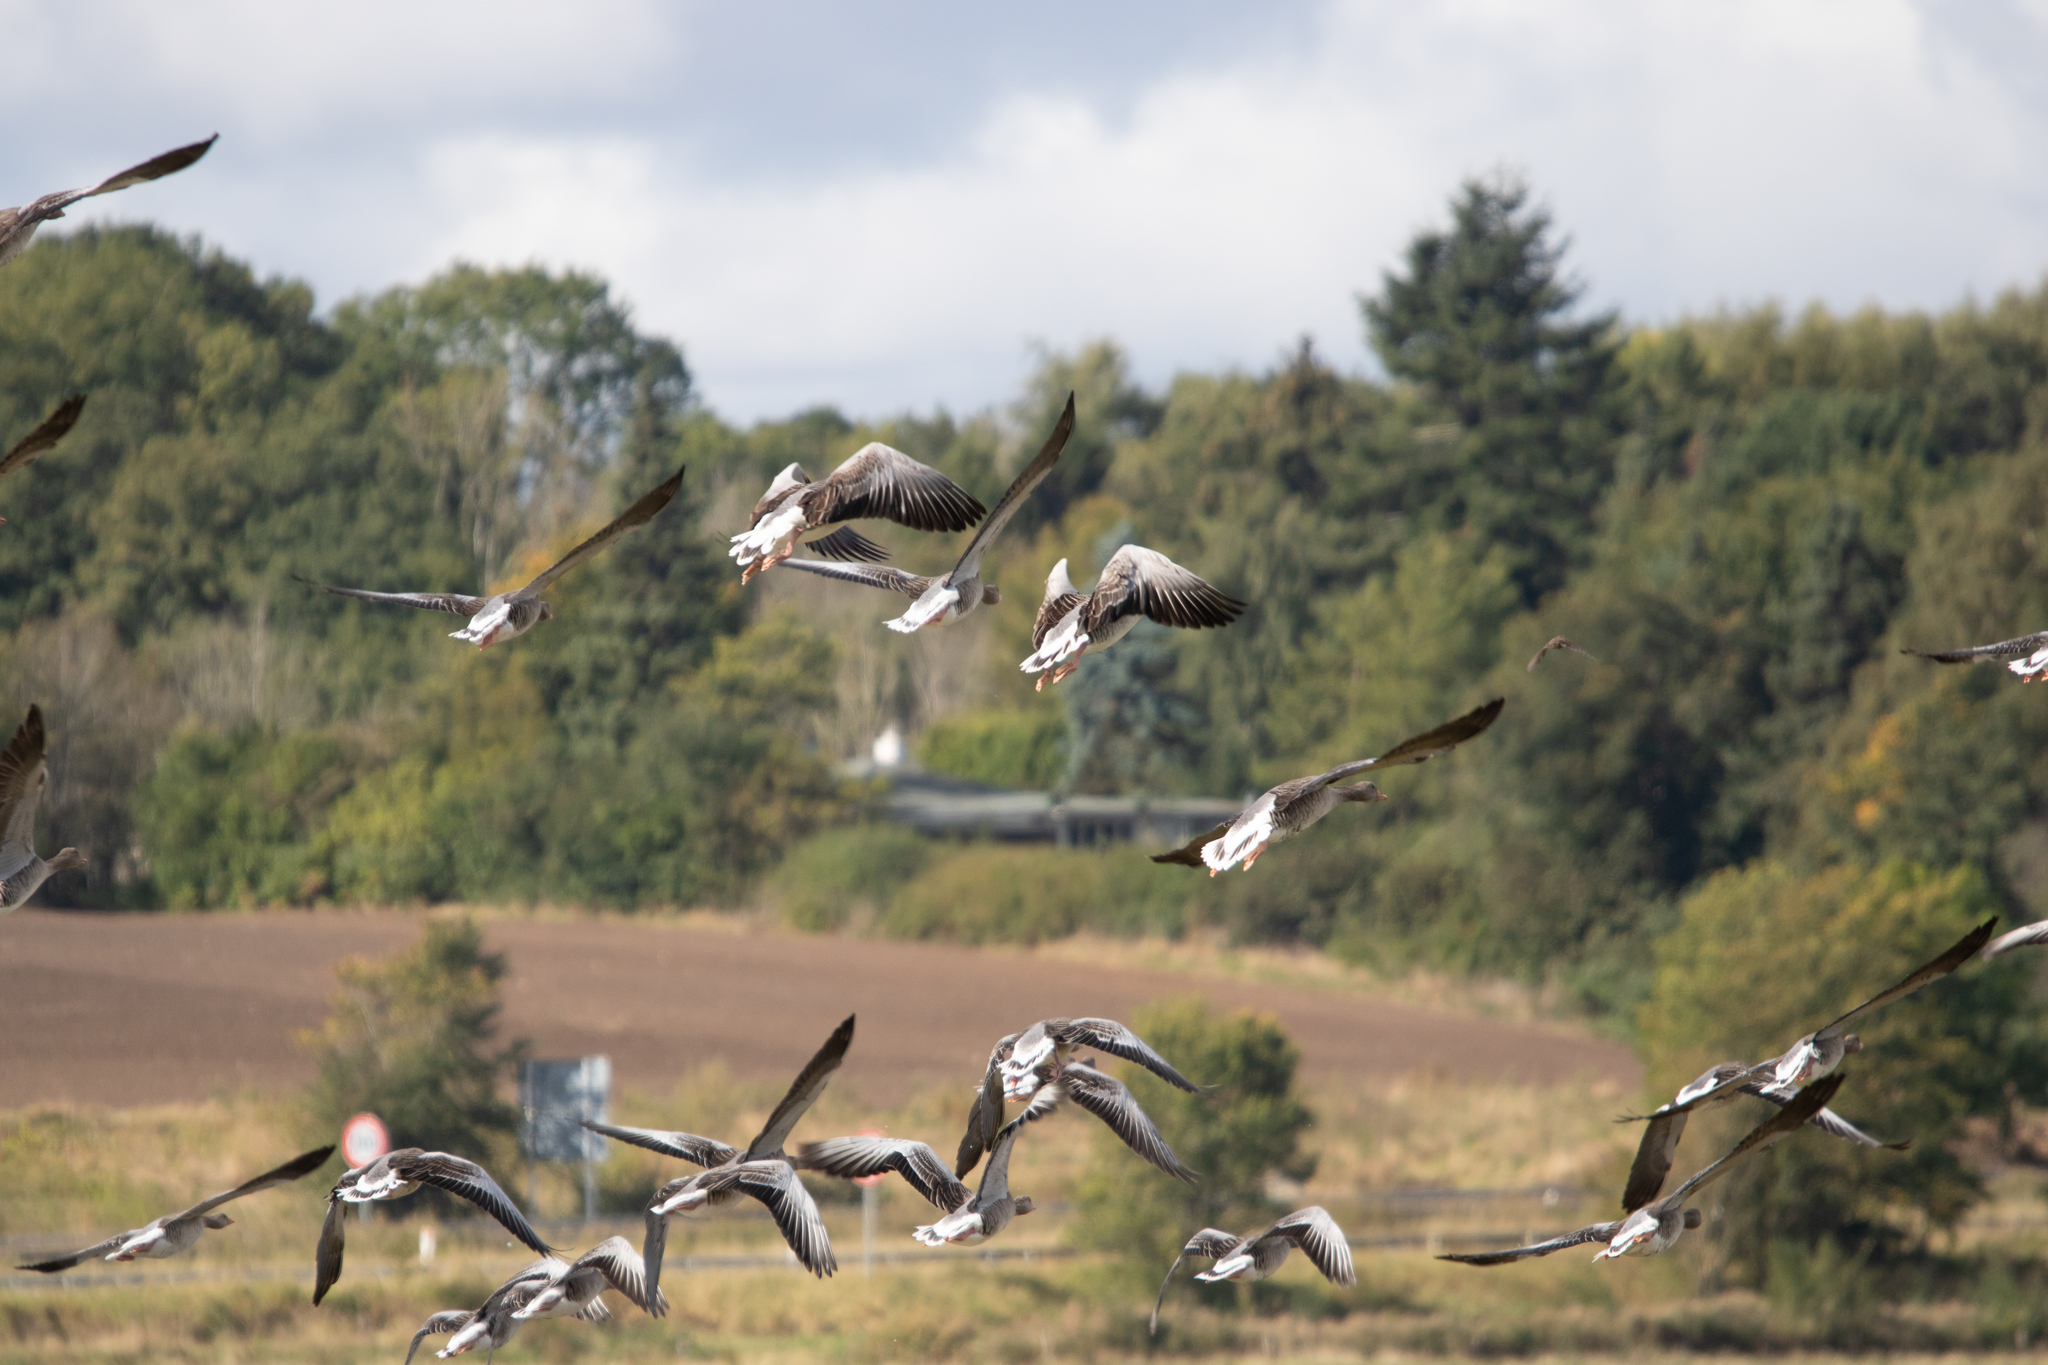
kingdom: Animalia
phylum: Chordata
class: Aves
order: Anseriformes
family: Anatidae
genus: Anser
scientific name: Anser anser
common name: Greylag goose
